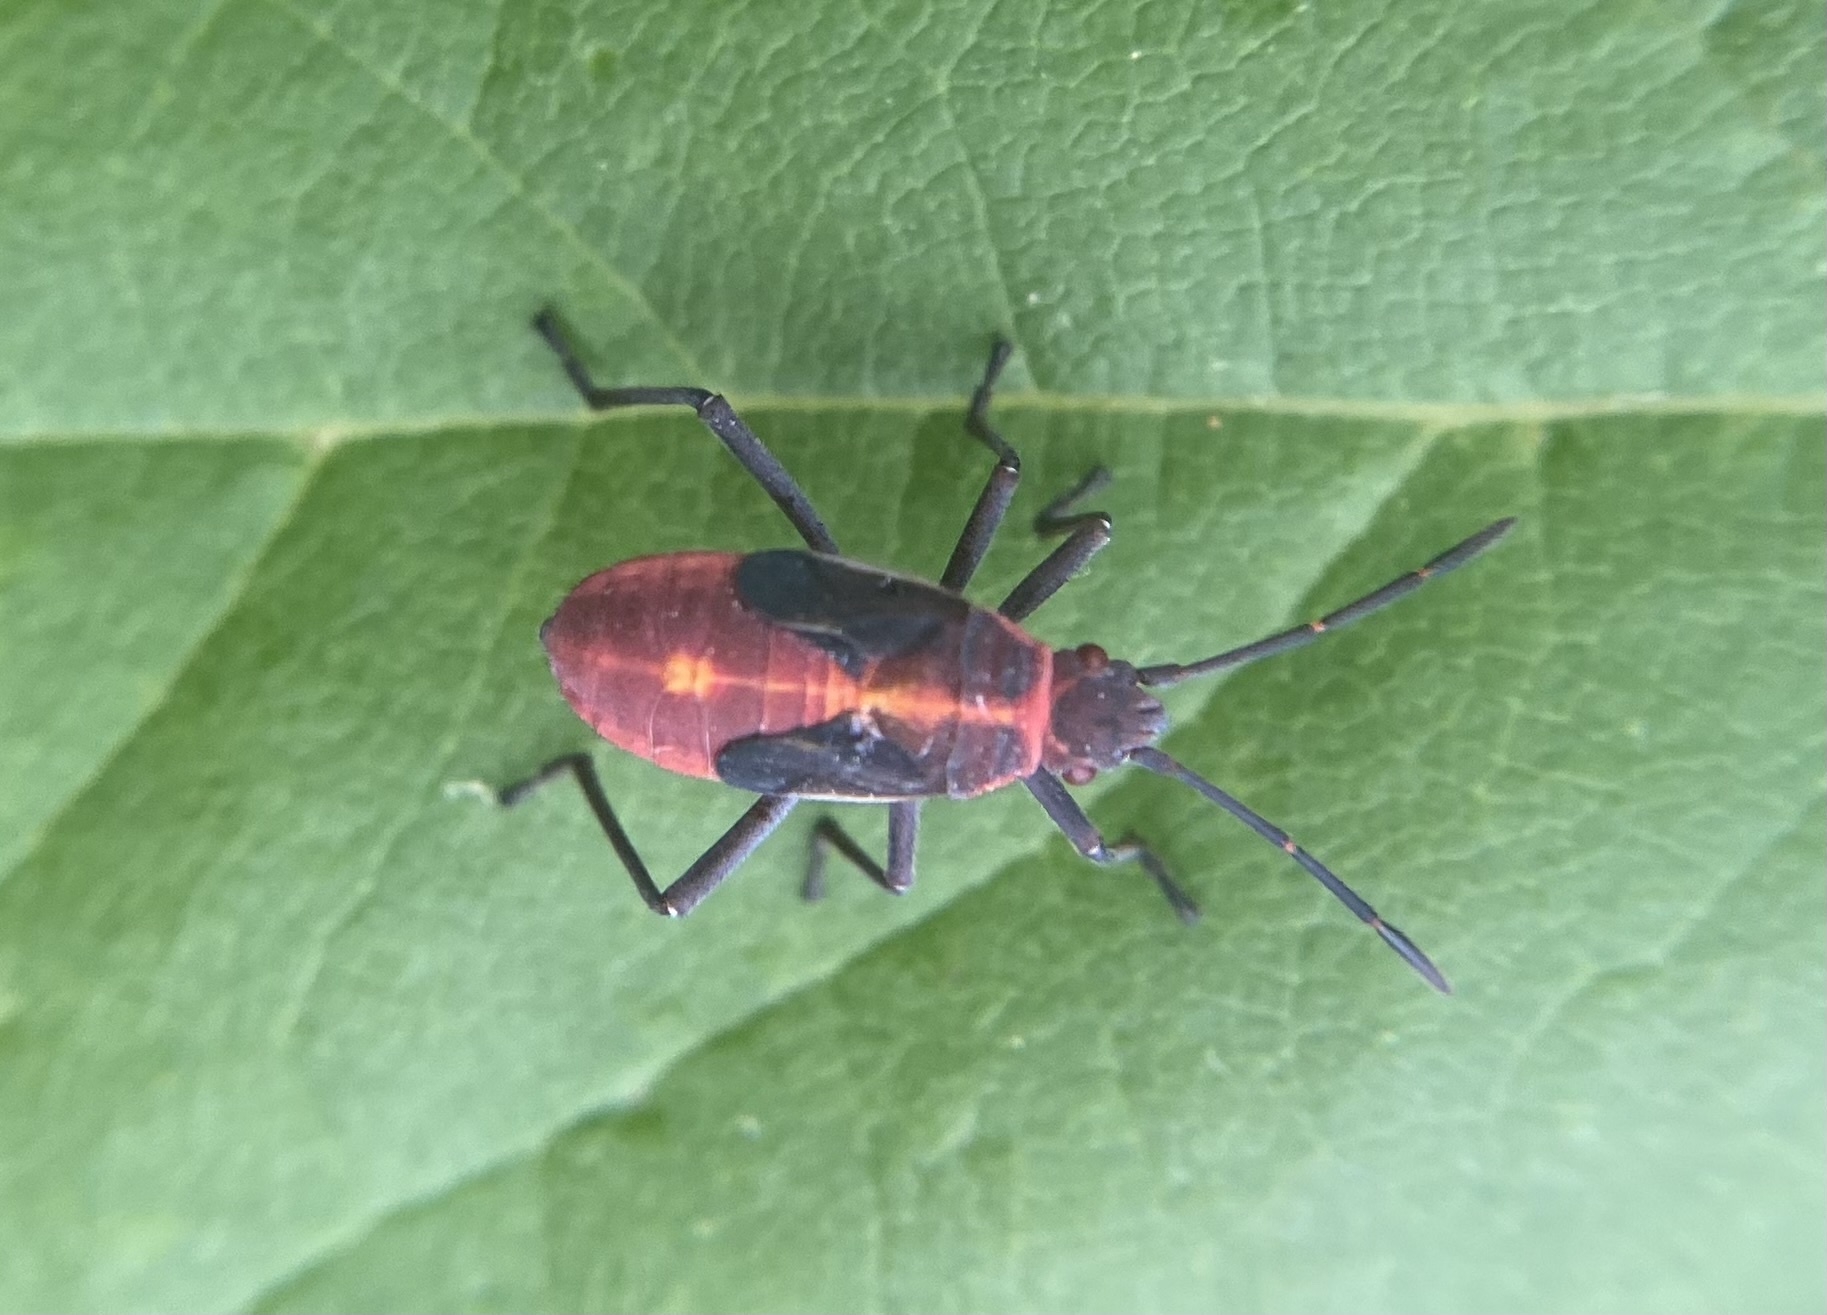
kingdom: Animalia
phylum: Arthropoda
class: Insecta
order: Hemiptera
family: Rhopalidae
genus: Boisea
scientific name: Boisea trivittata
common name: Boxelder bug
